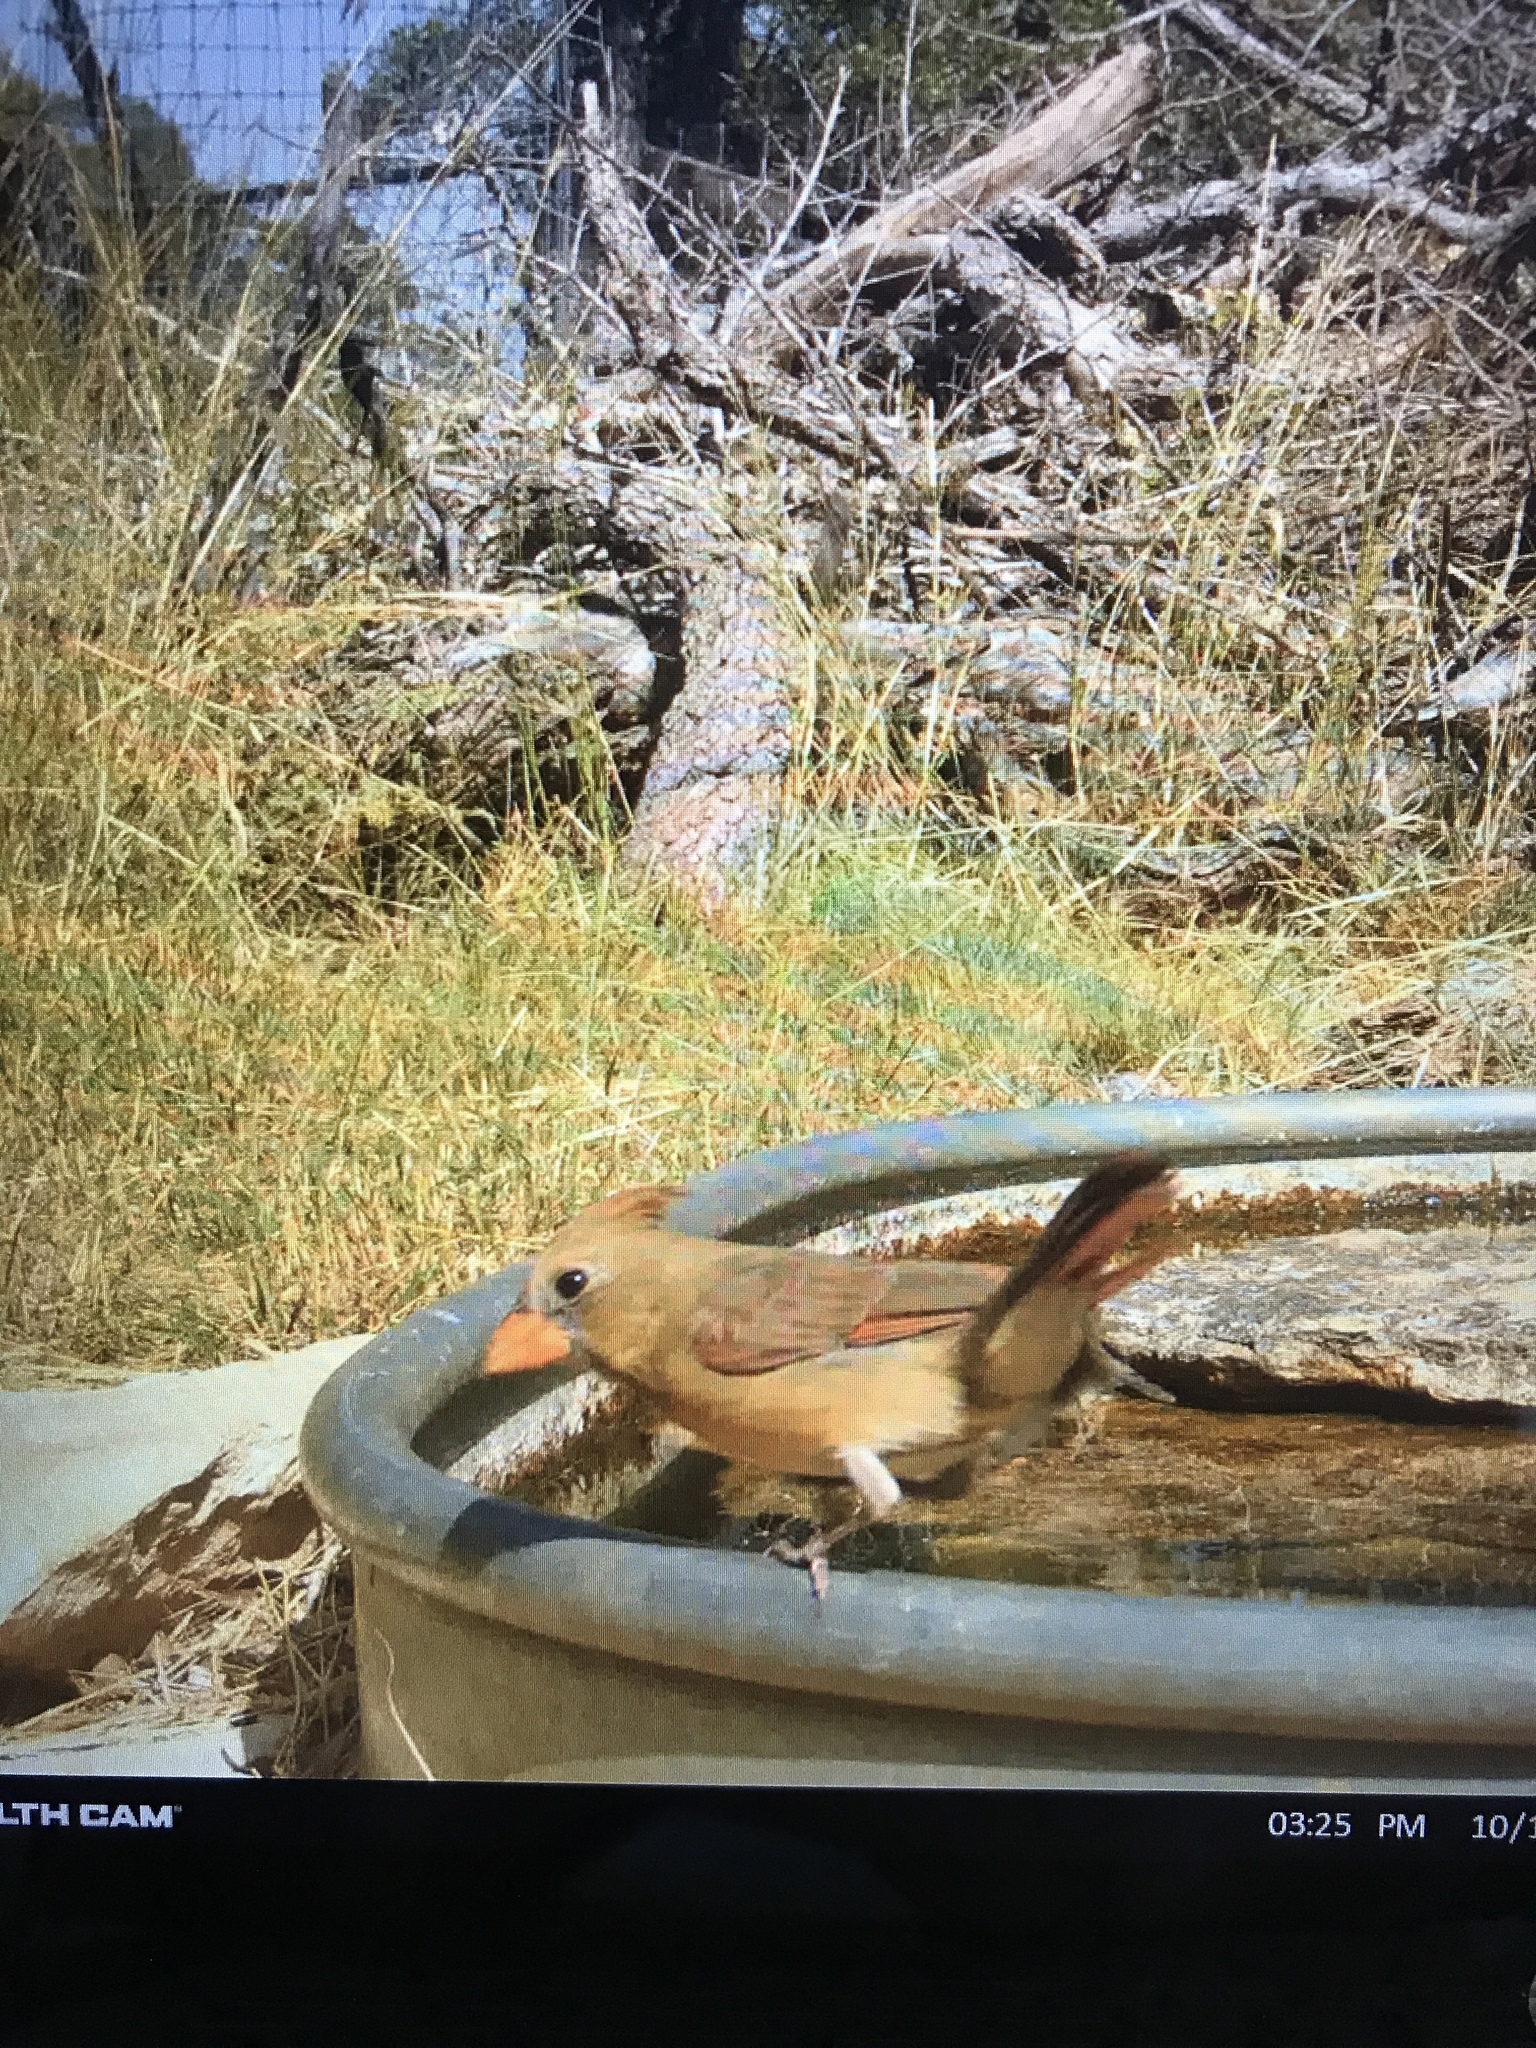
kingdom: Animalia
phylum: Chordata
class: Aves
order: Passeriformes
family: Cardinalidae
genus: Cardinalis
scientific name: Cardinalis cardinalis
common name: Northern cardinal
